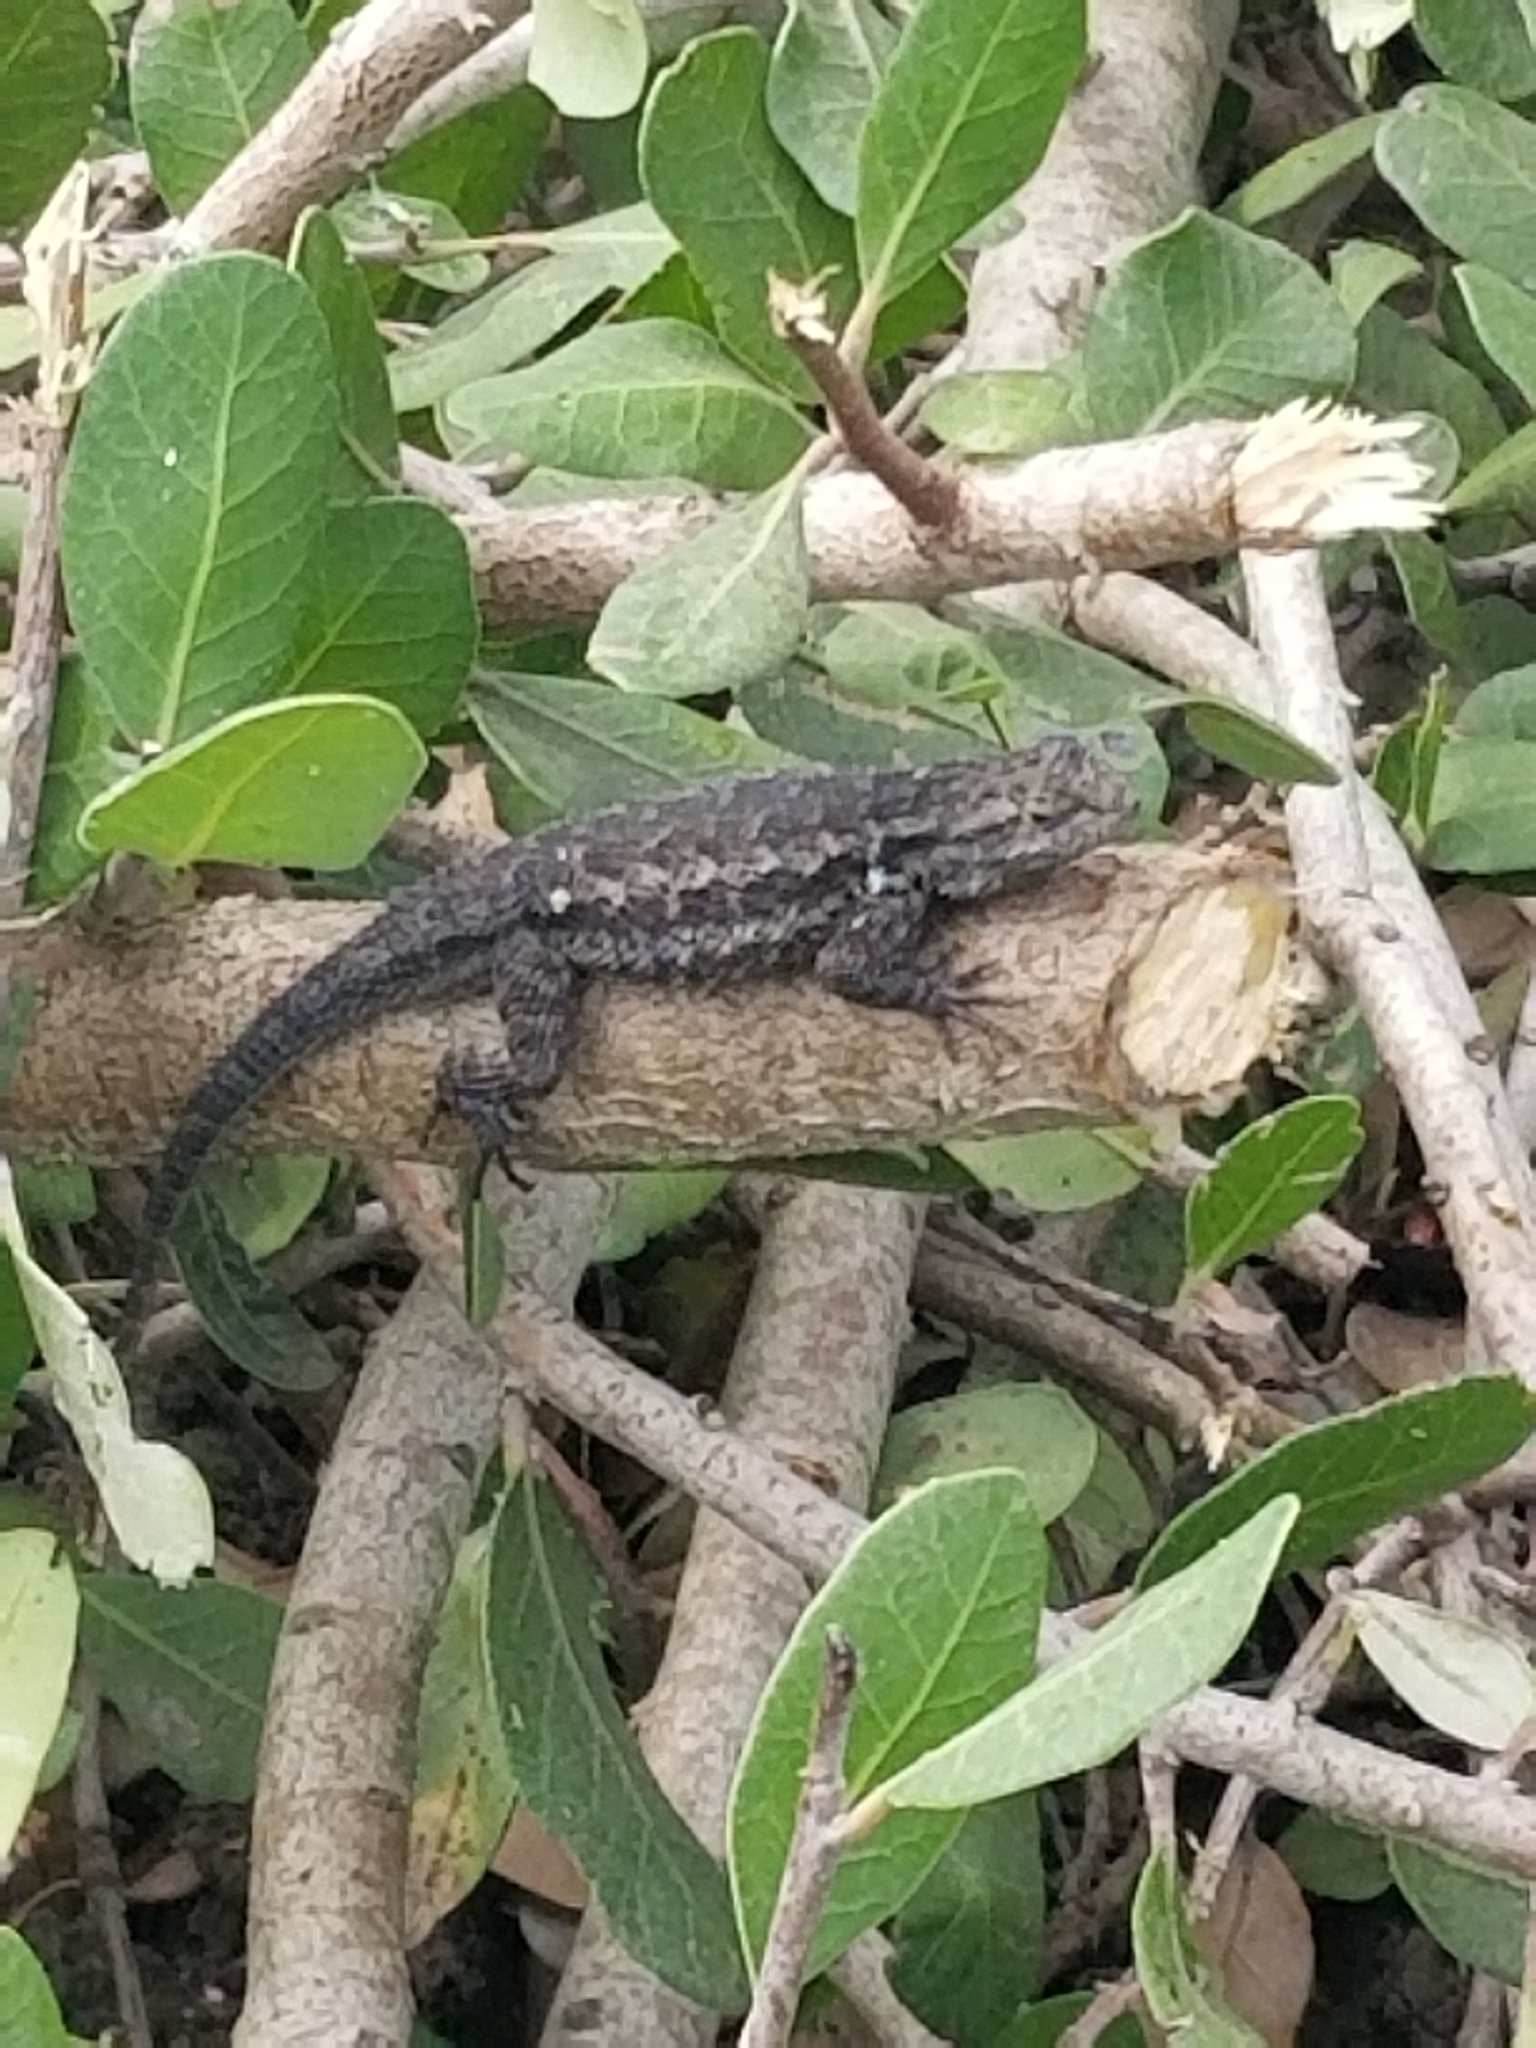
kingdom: Animalia
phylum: Chordata
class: Squamata
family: Phrynosomatidae
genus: Sceloporus
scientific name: Sceloporus occidentalis
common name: Western fence lizard
